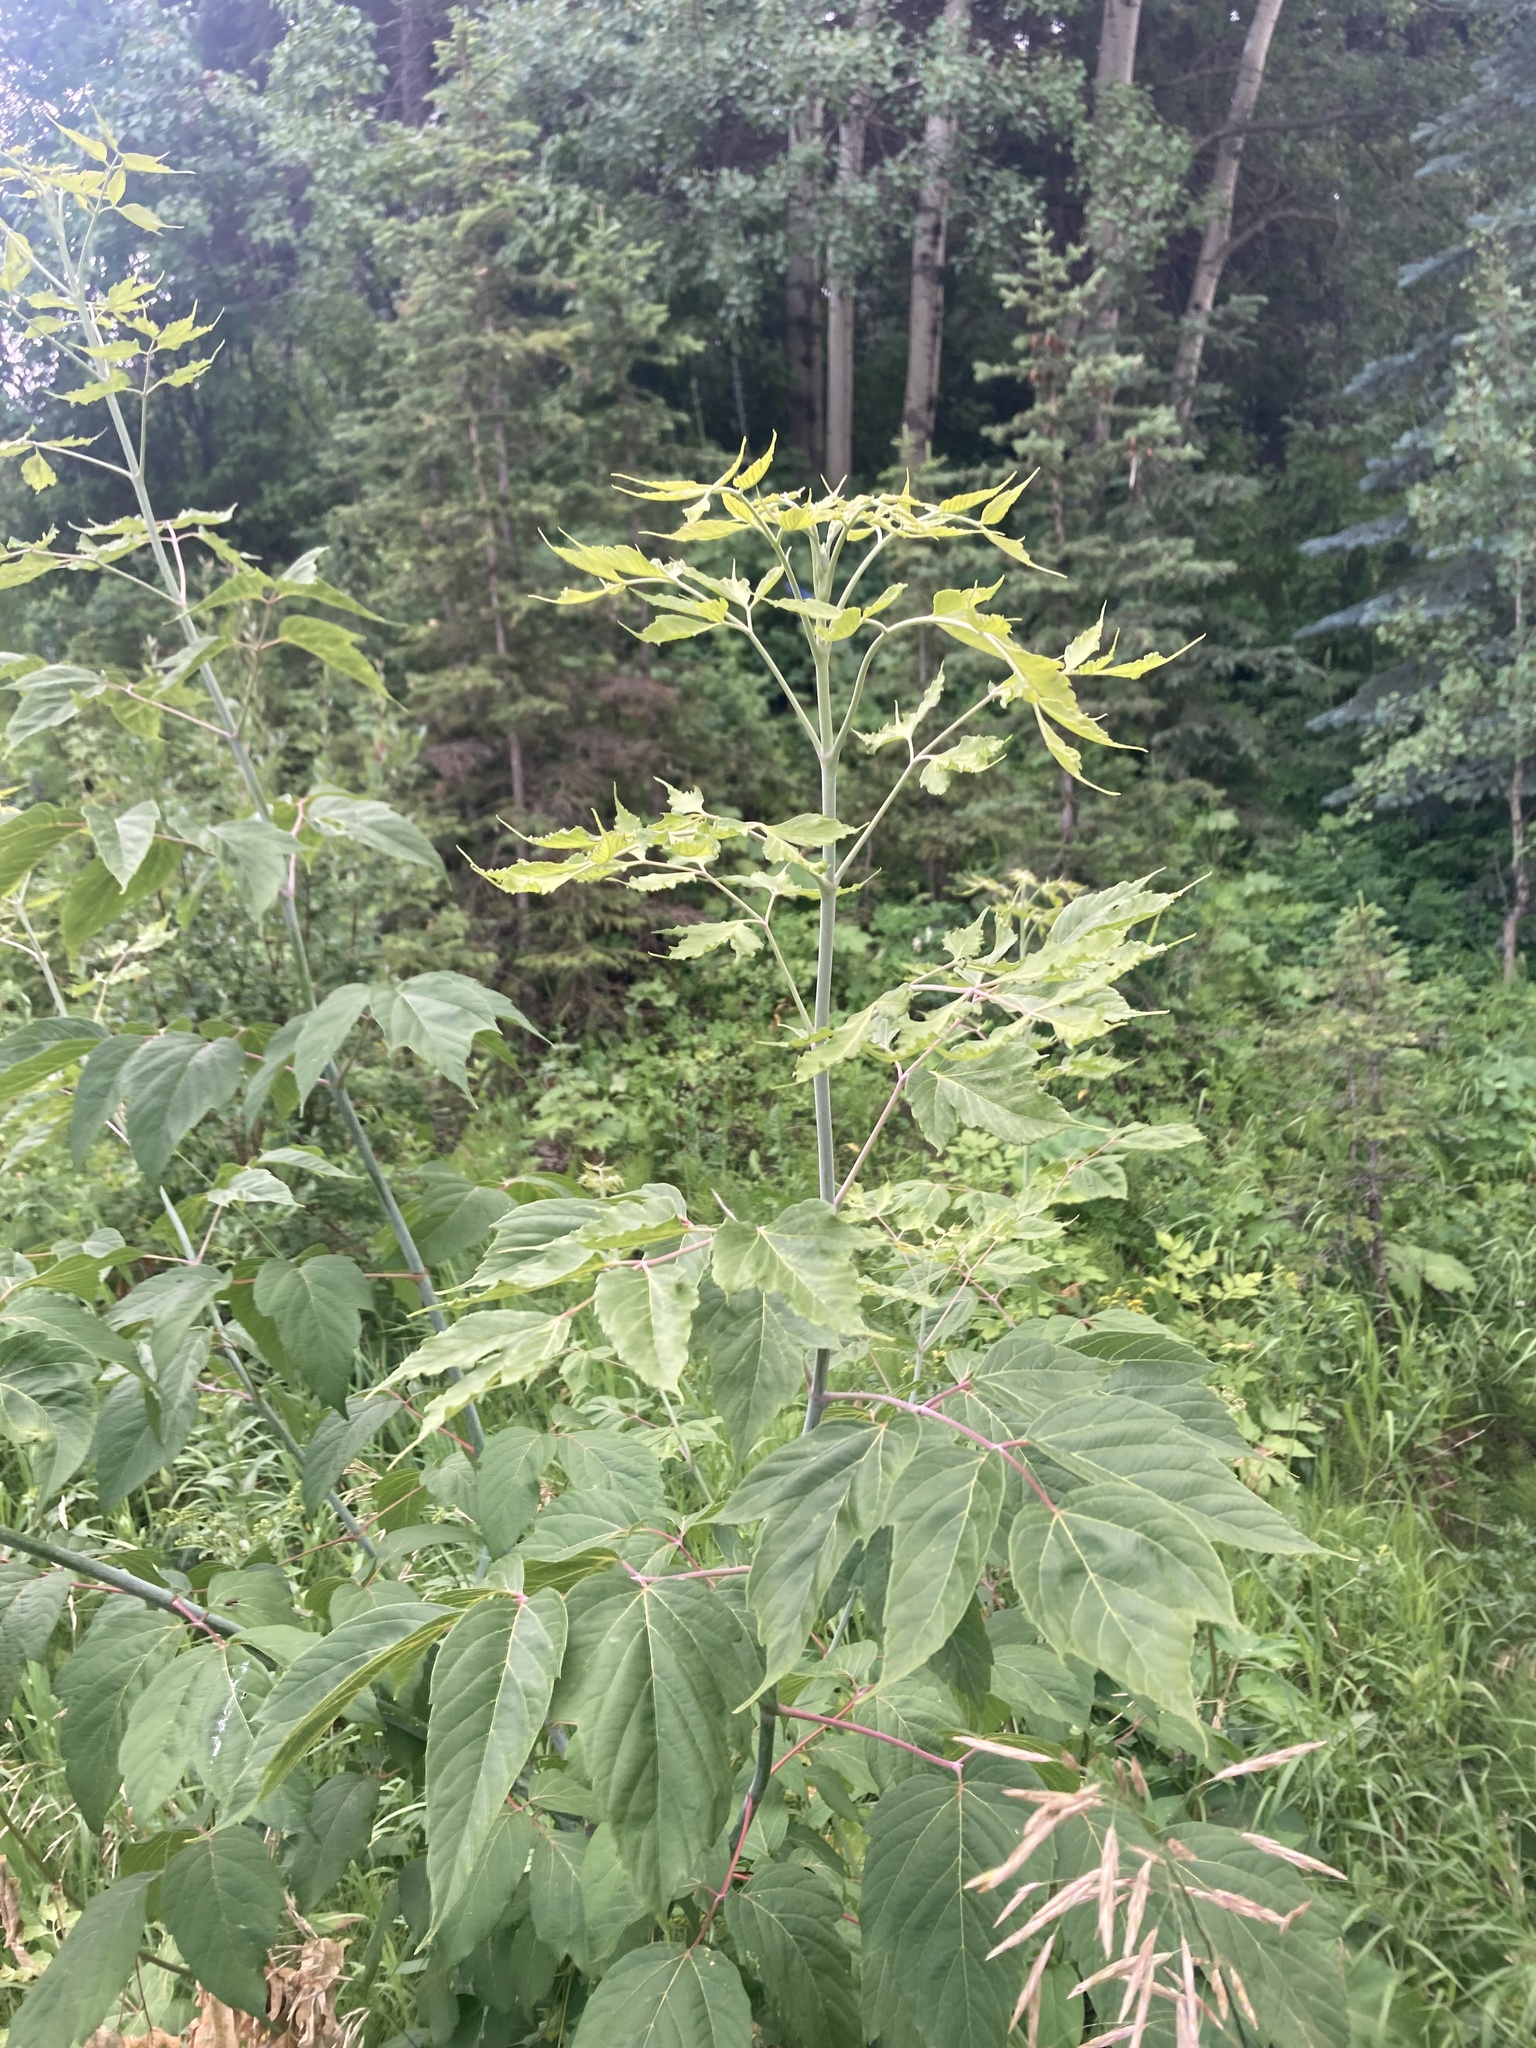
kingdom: Plantae
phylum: Tracheophyta
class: Magnoliopsida
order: Sapindales
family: Sapindaceae
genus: Acer
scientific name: Acer negundo
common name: Ashleaf maple
